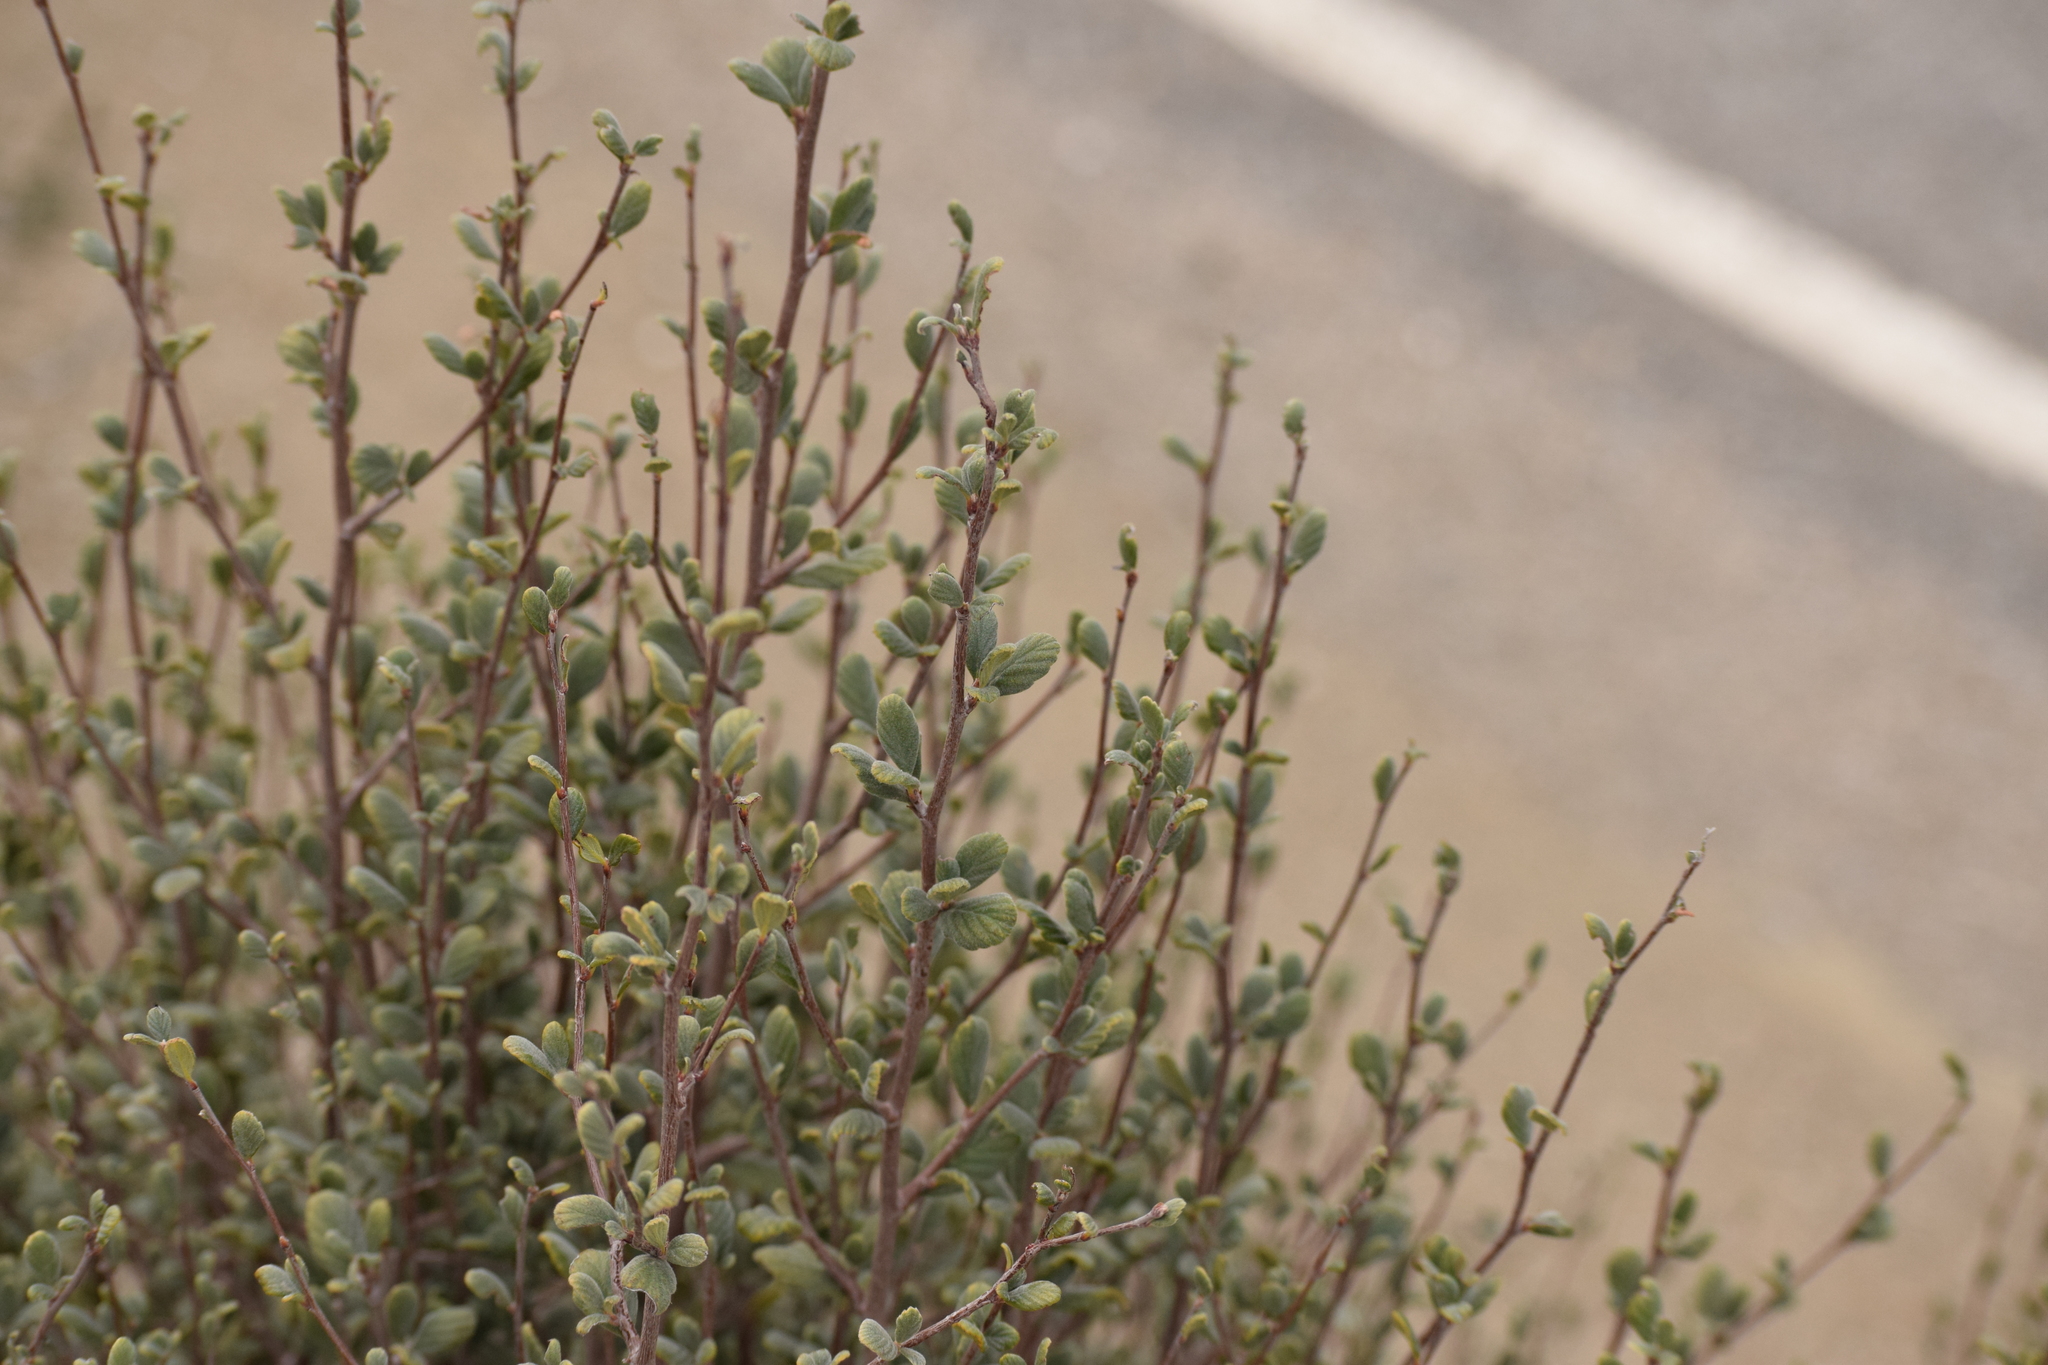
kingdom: Plantae
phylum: Tracheophyta
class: Magnoliopsida
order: Rosales
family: Rosaceae
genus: Cercocarpus
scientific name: Cercocarpus betuloides
